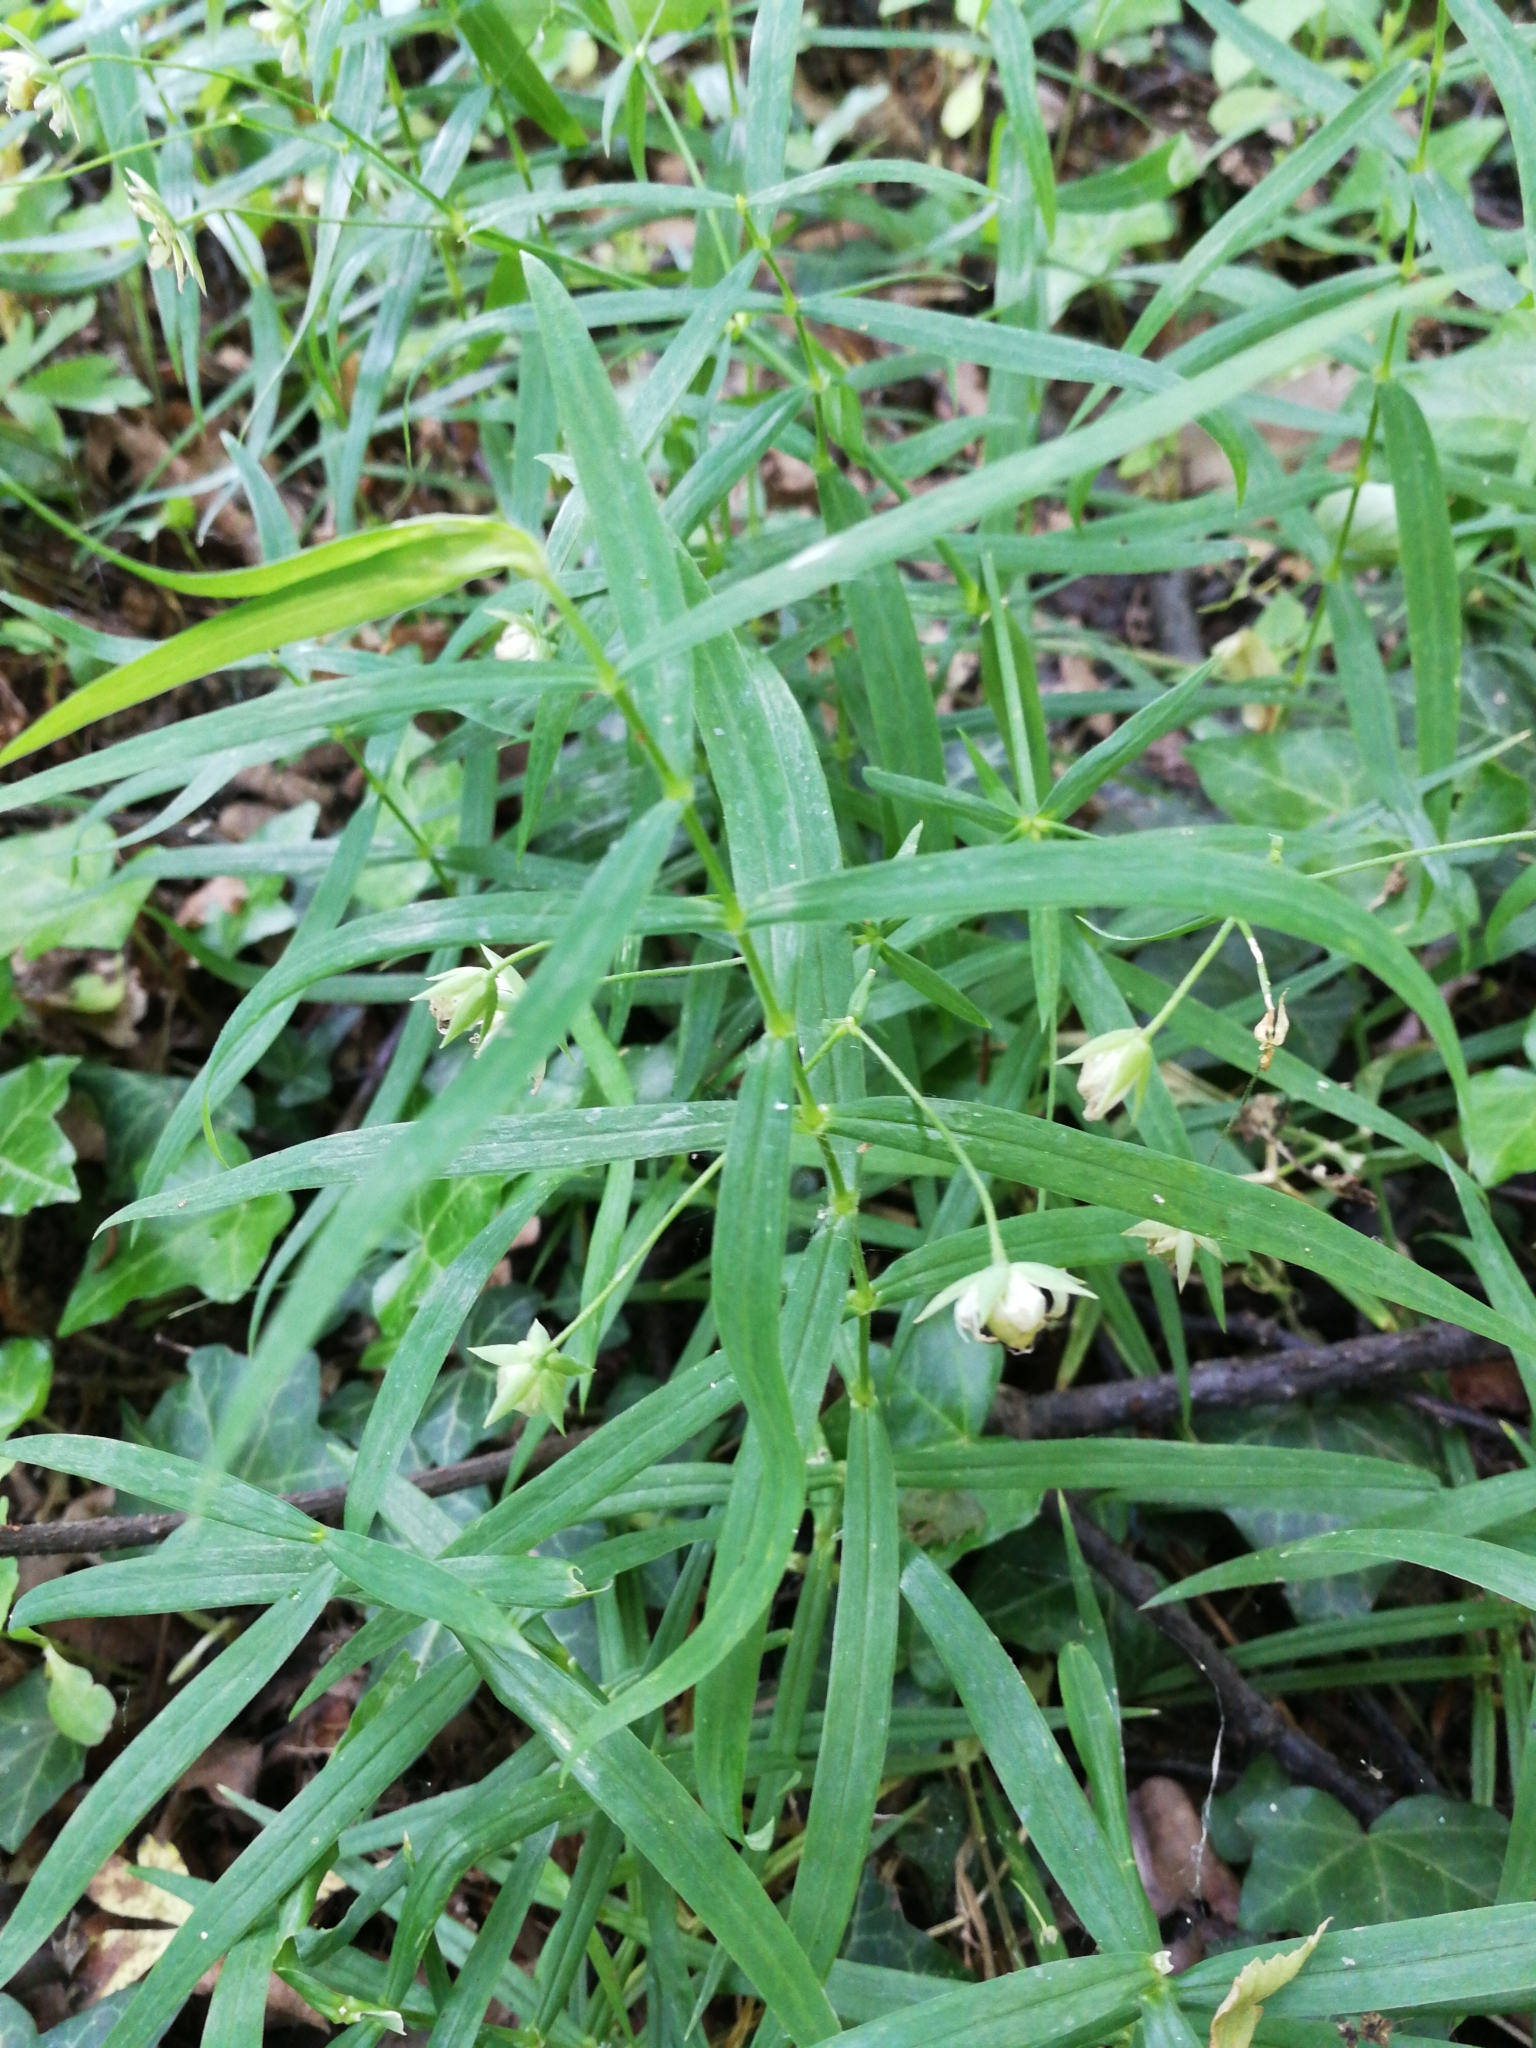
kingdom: Plantae
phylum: Tracheophyta
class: Magnoliopsida
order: Caryophyllales
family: Caryophyllaceae
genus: Rabelera
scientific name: Rabelera holostea
